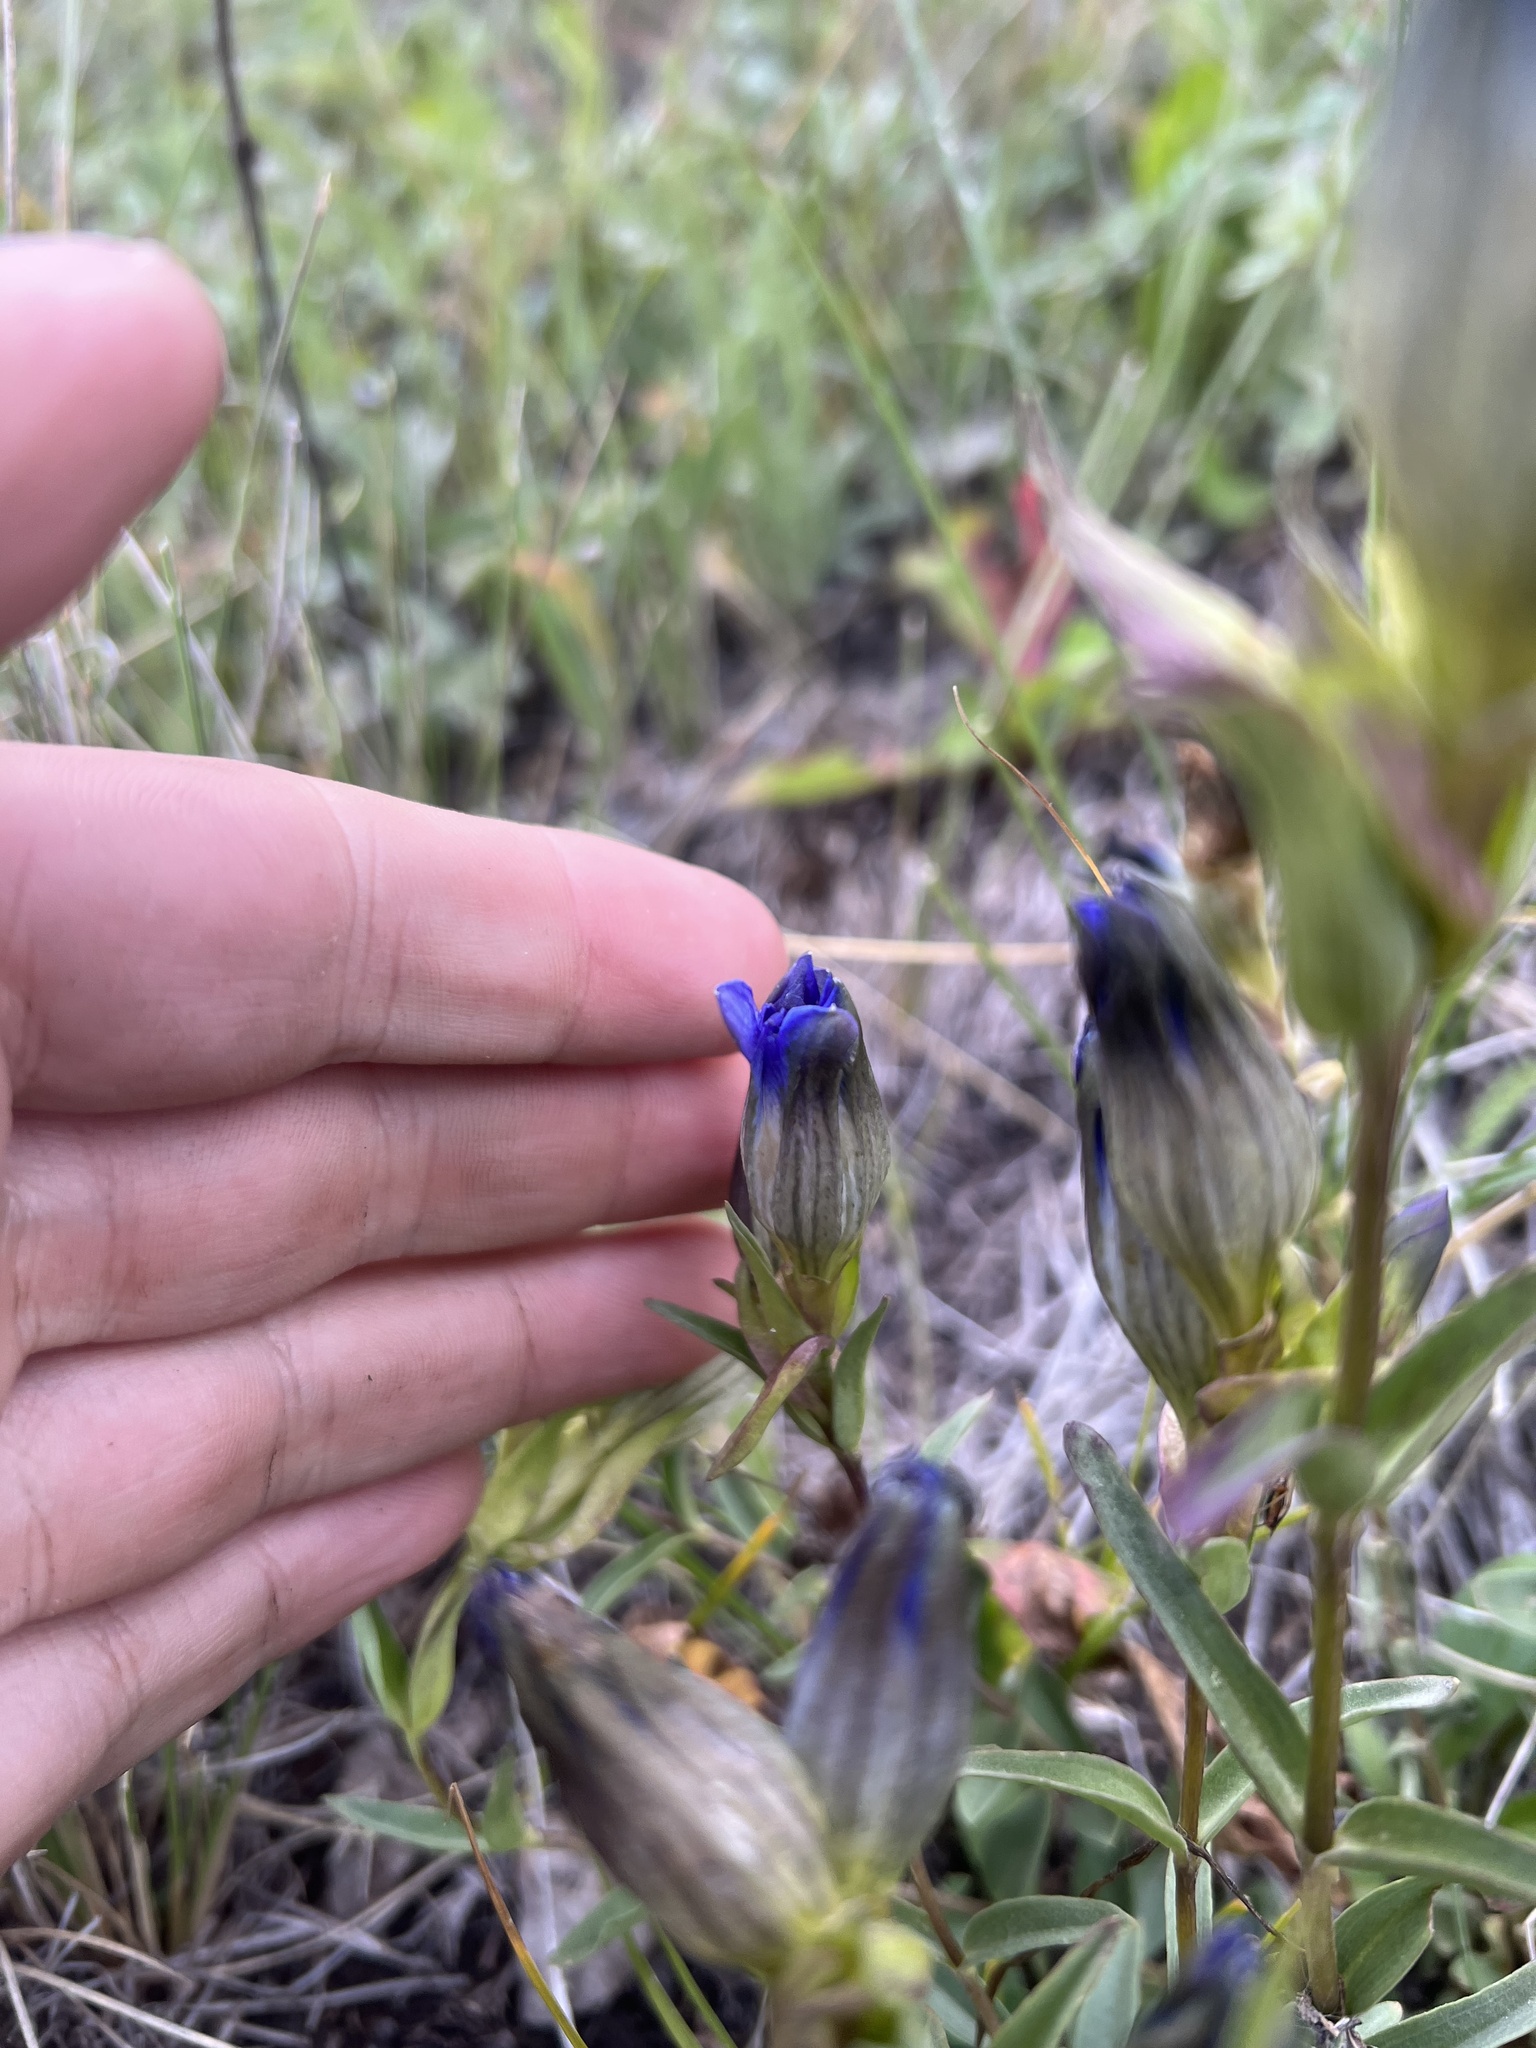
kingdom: Plantae
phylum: Tracheophyta
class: Magnoliopsida
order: Gentianales
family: Gentianaceae
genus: Gentiana
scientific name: Gentiana parryi
